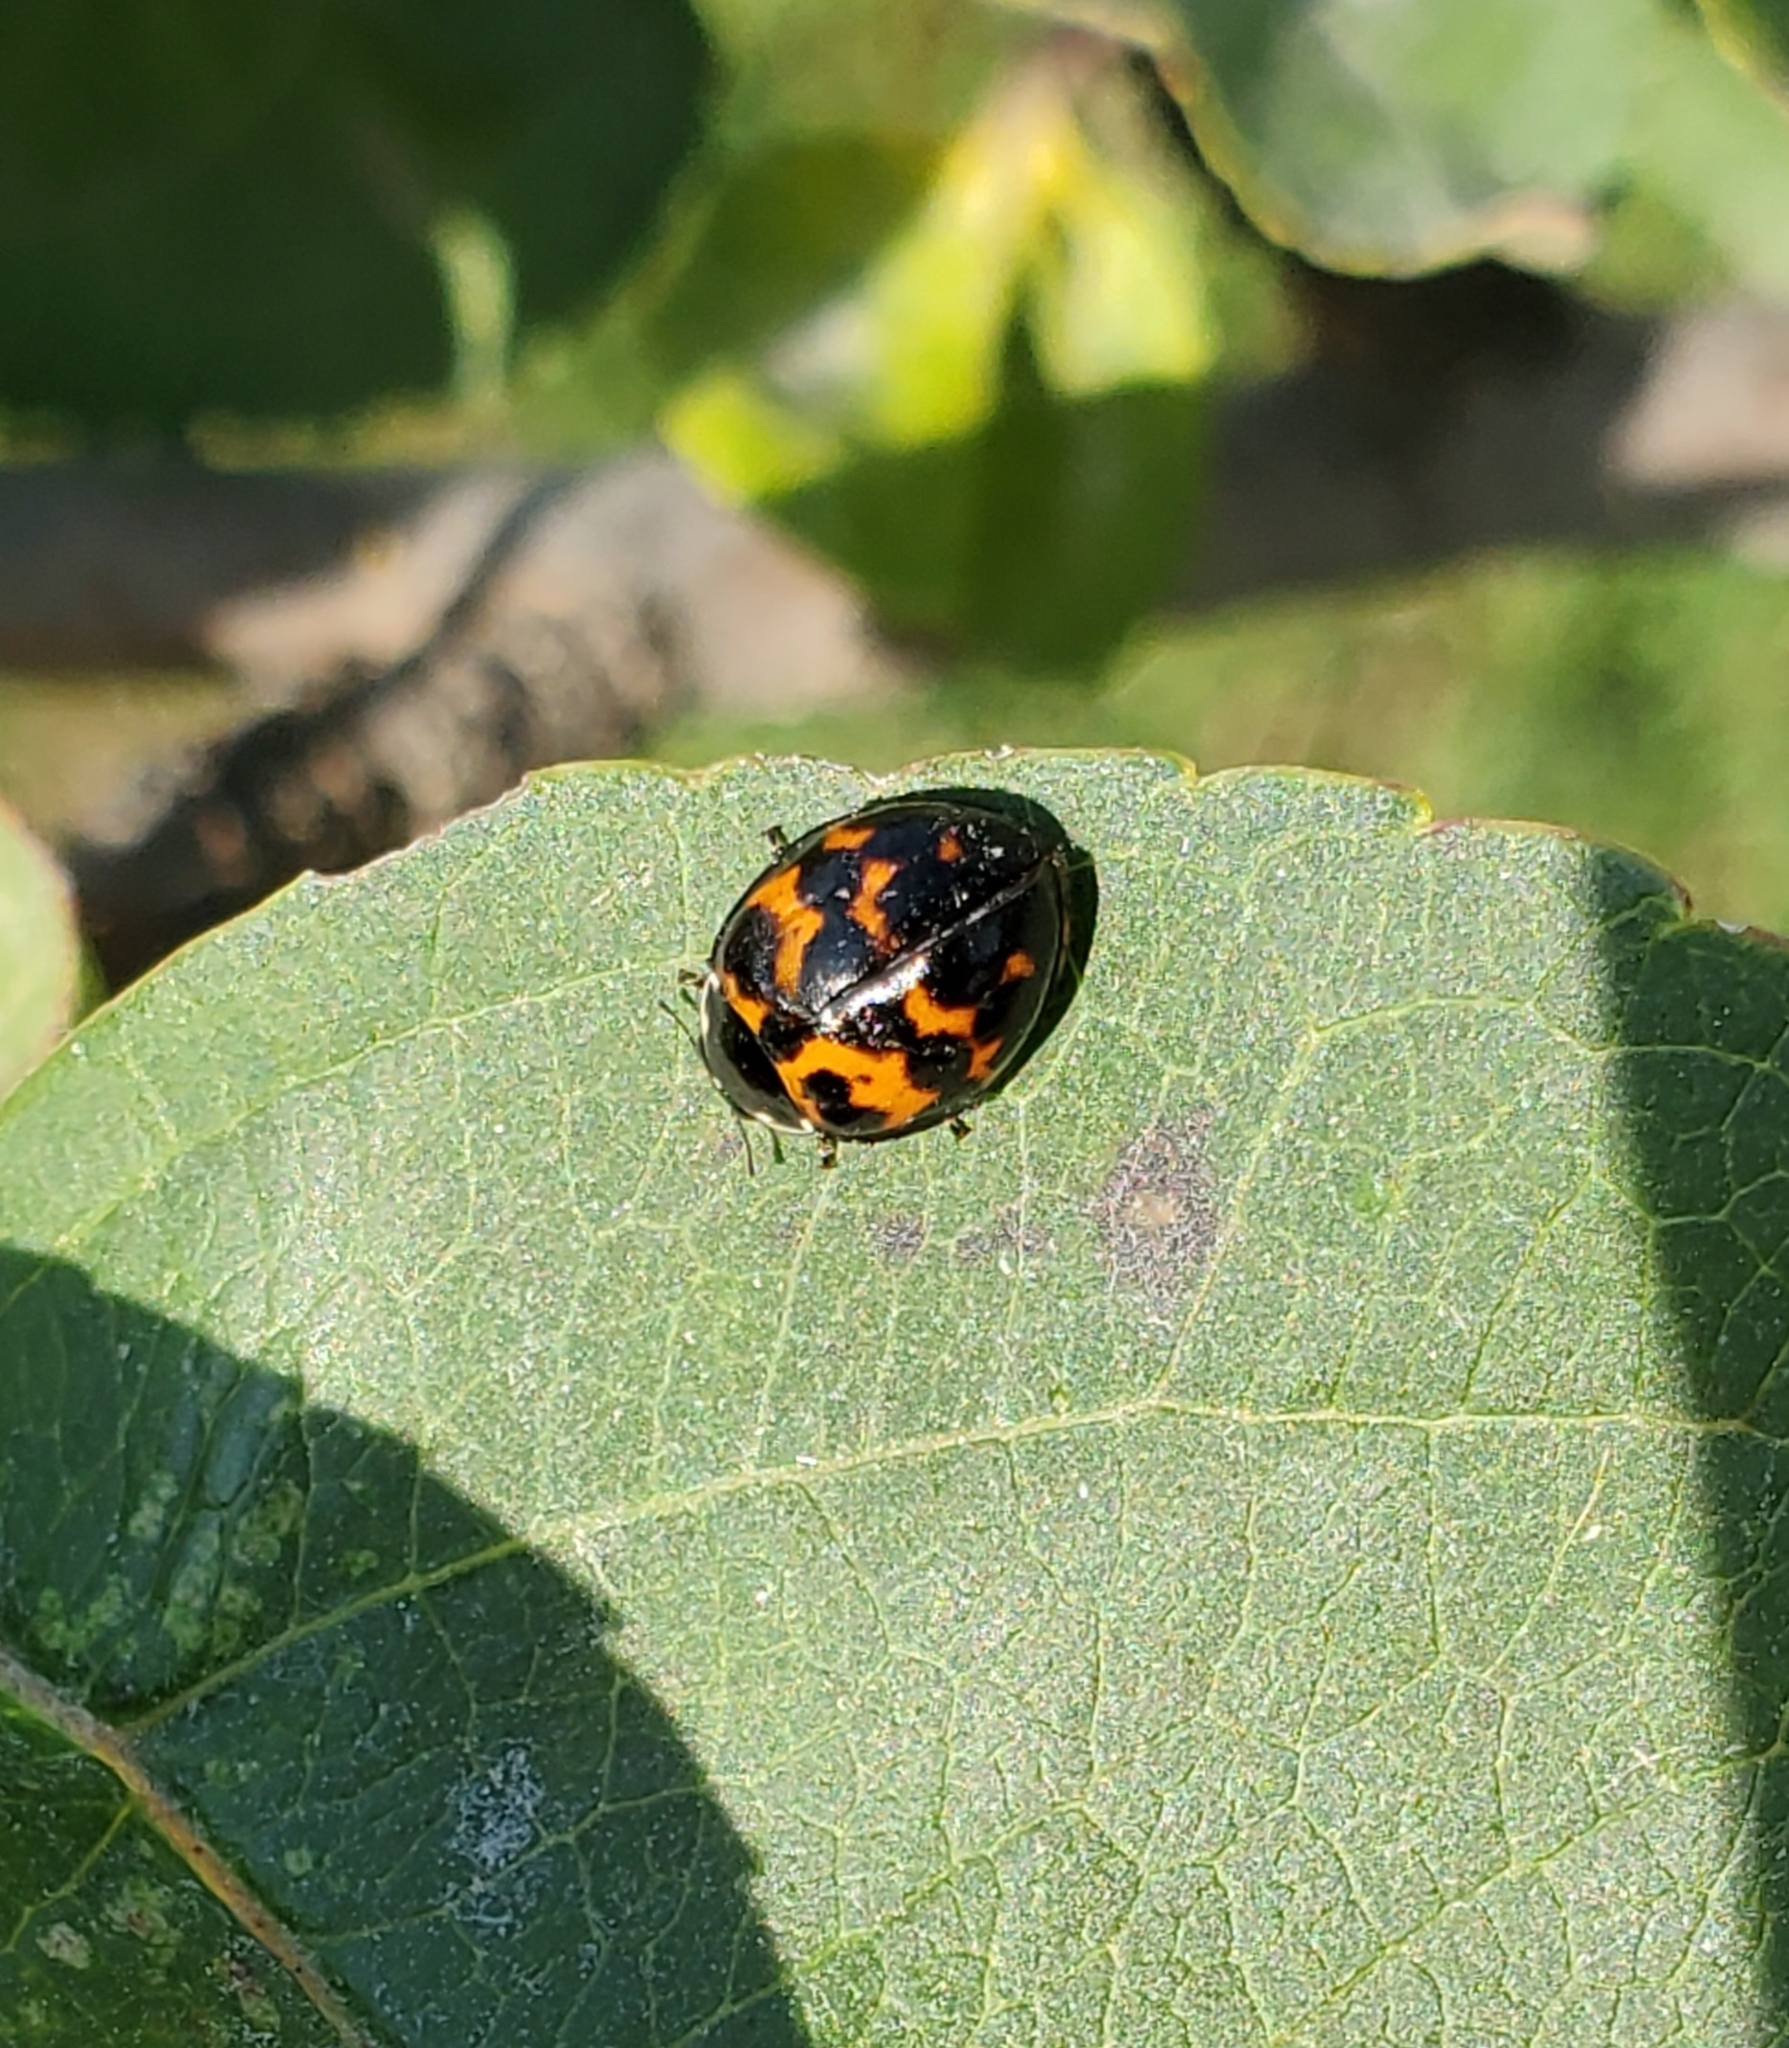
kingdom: Animalia
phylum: Arthropoda
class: Insecta
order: Coleoptera
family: Coccinellidae
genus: Harmonia
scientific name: Harmonia axyridis
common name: Harlequin ladybird
